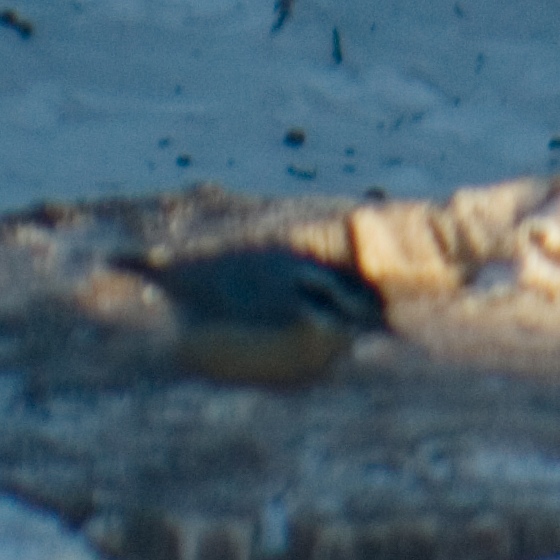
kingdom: Animalia
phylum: Chordata
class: Aves
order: Passeriformes
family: Sittidae
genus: Sitta
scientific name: Sitta canadensis
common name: Red-breasted nuthatch
